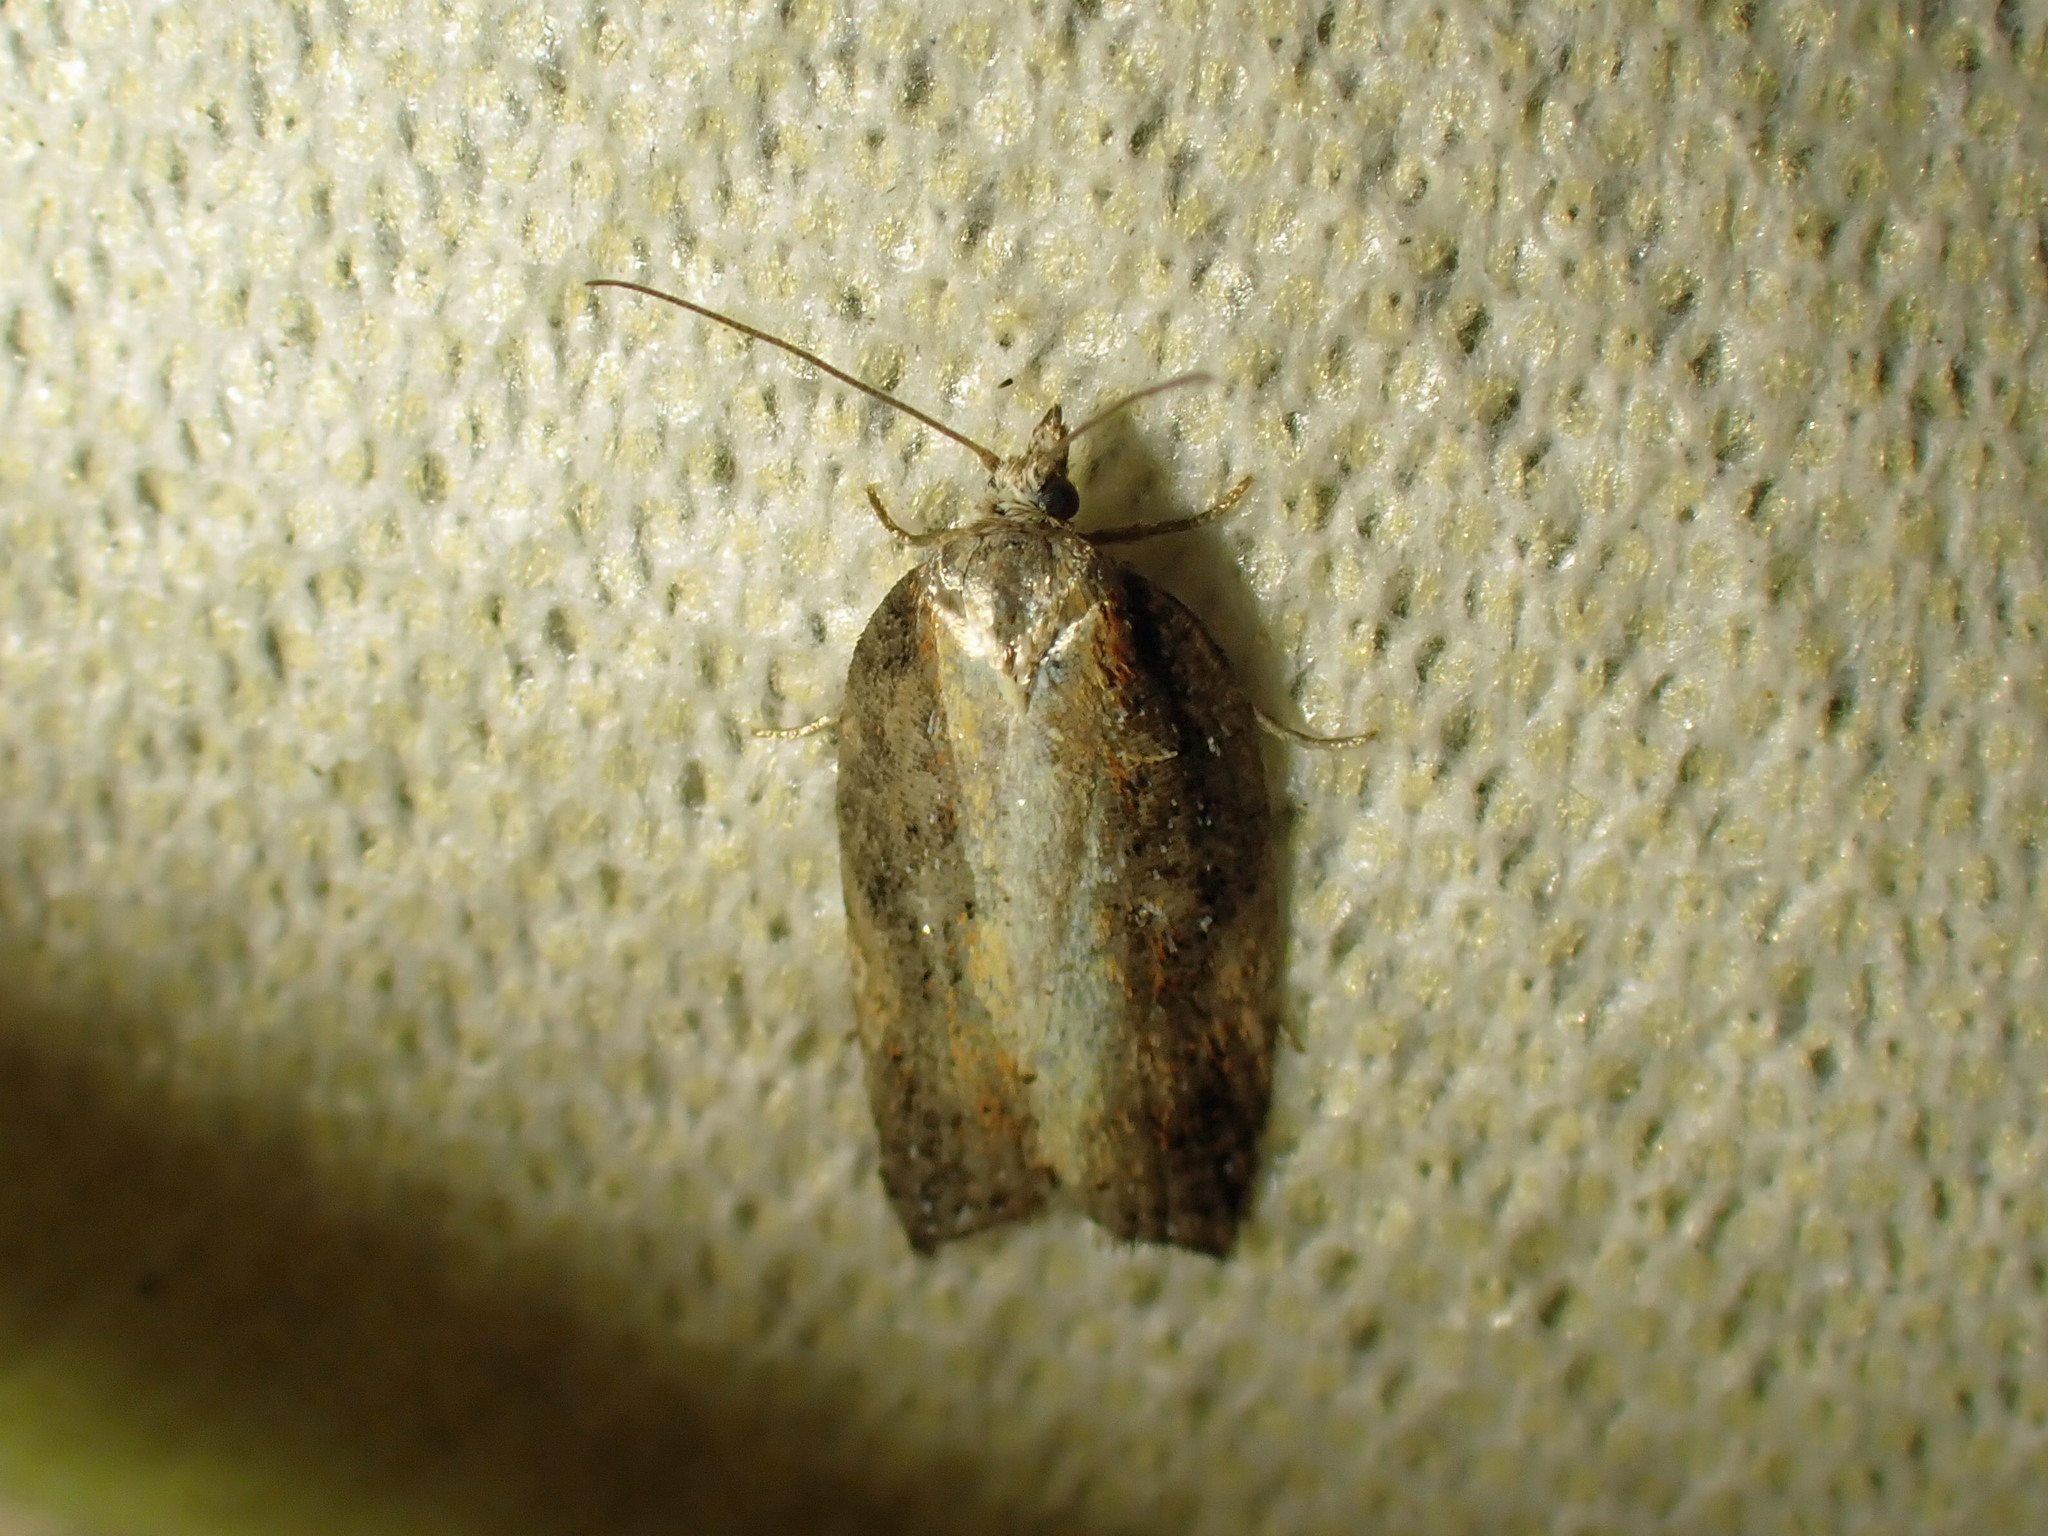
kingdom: Animalia
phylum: Arthropoda
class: Insecta
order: Lepidoptera
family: Tortricidae
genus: Acleris
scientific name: Acleris robinsoniana
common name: Robinson's acleris moth
